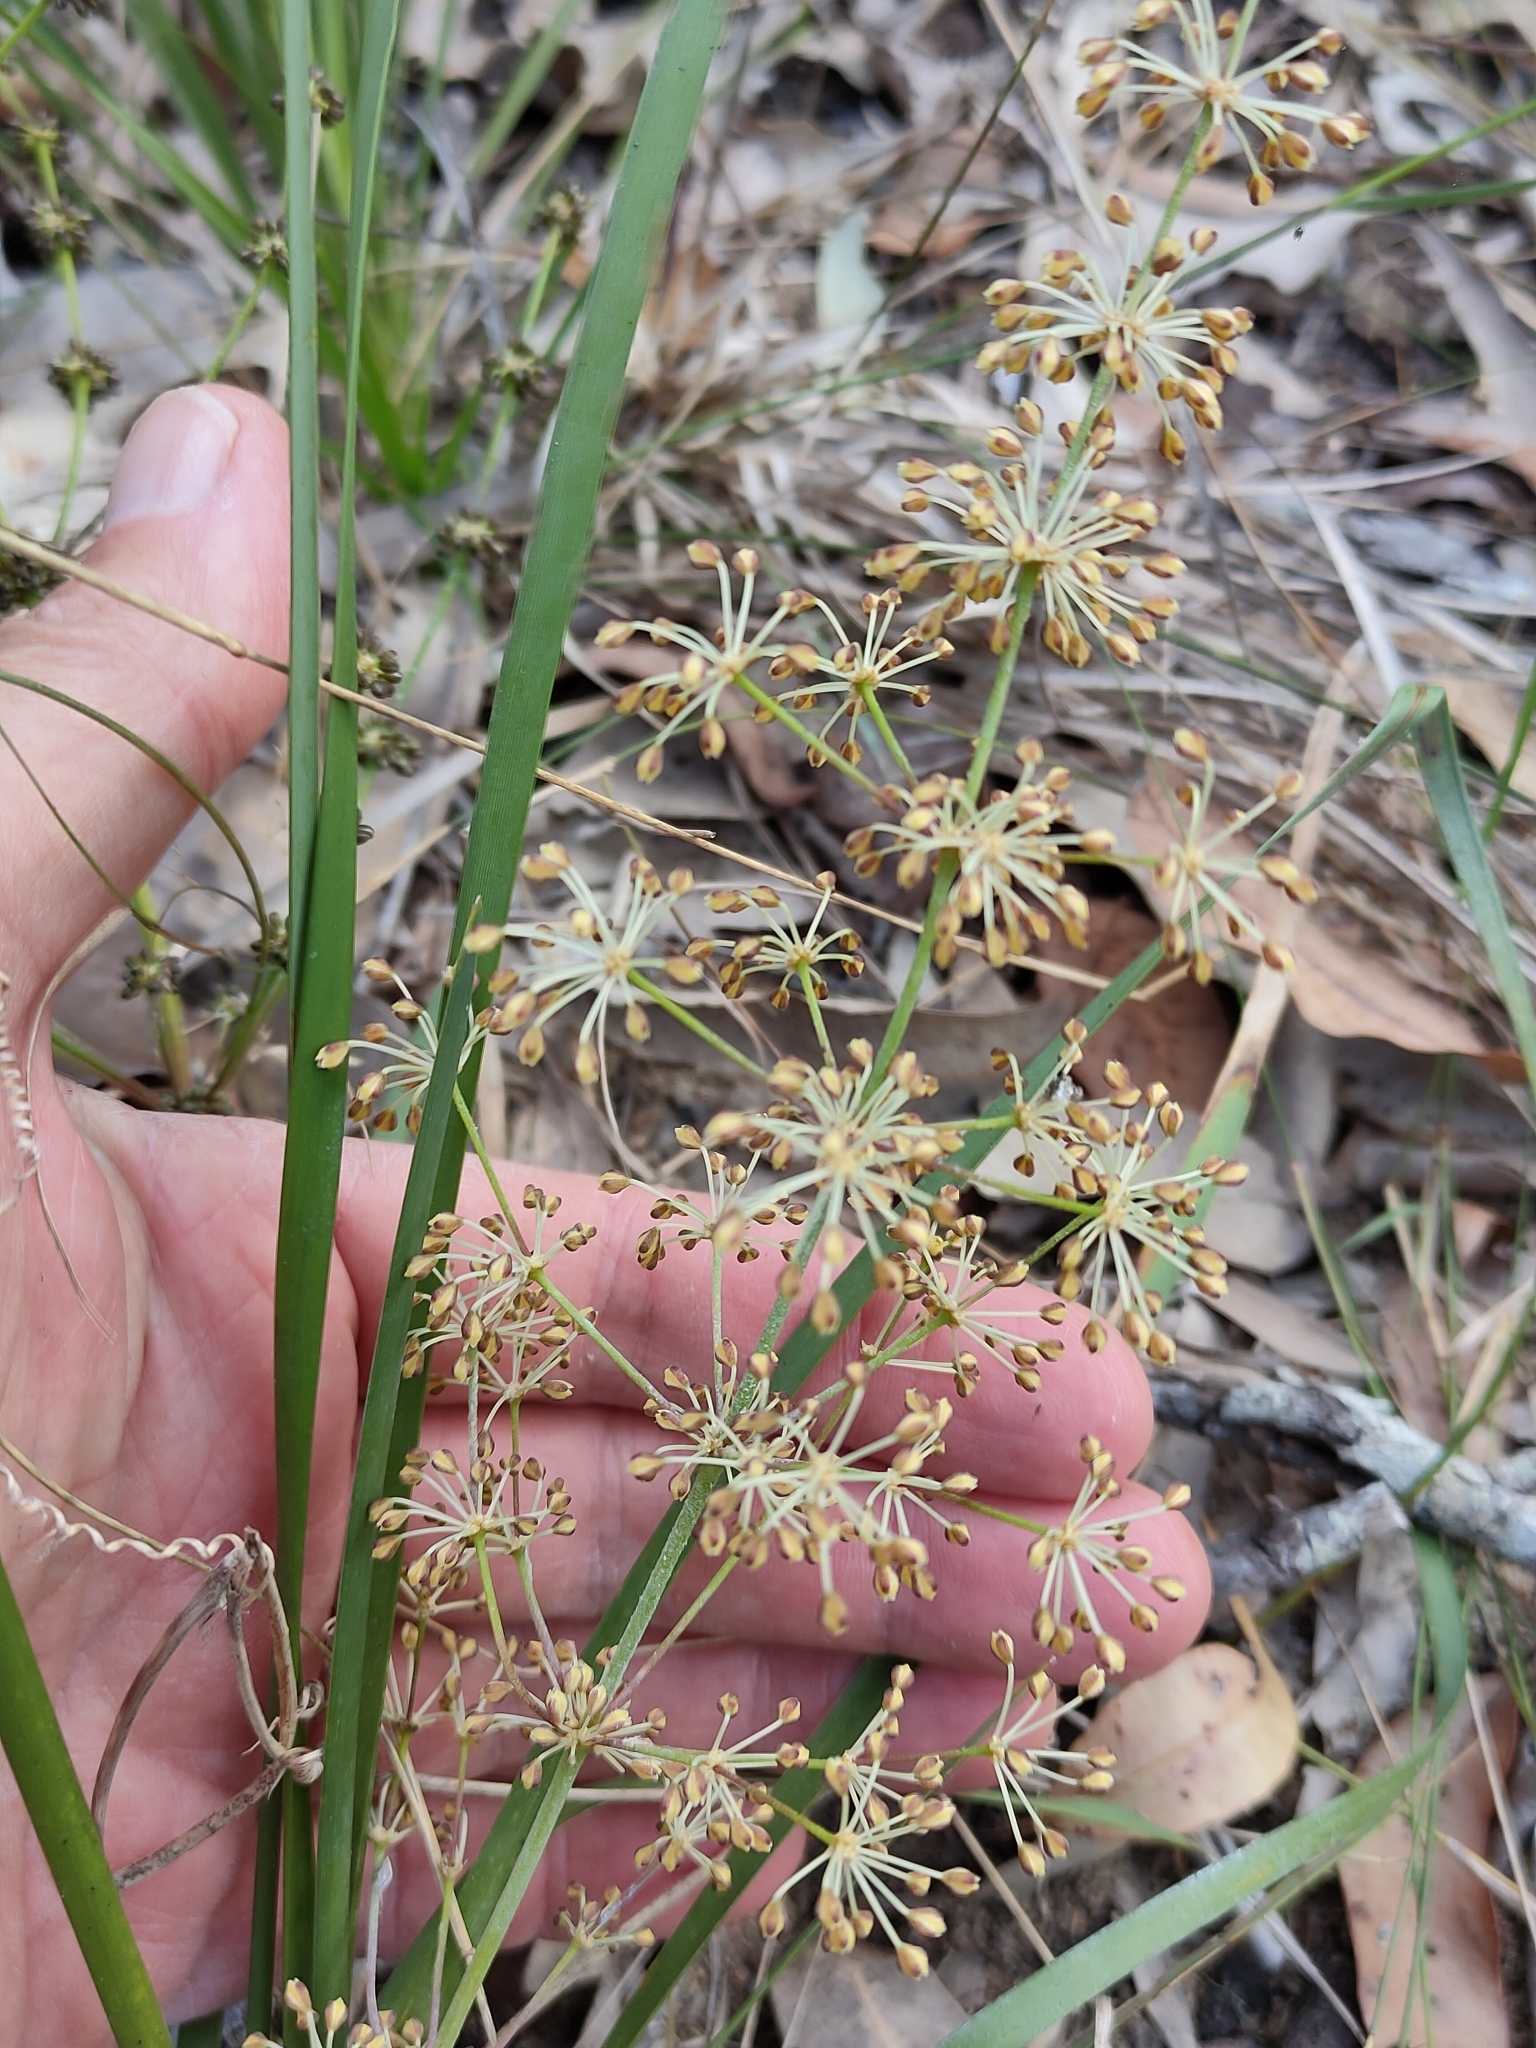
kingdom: Plantae
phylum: Tracheophyta
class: Liliopsida
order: Asparagales
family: Asparagaceae
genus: Lomandra
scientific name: Lomandra multiflora
